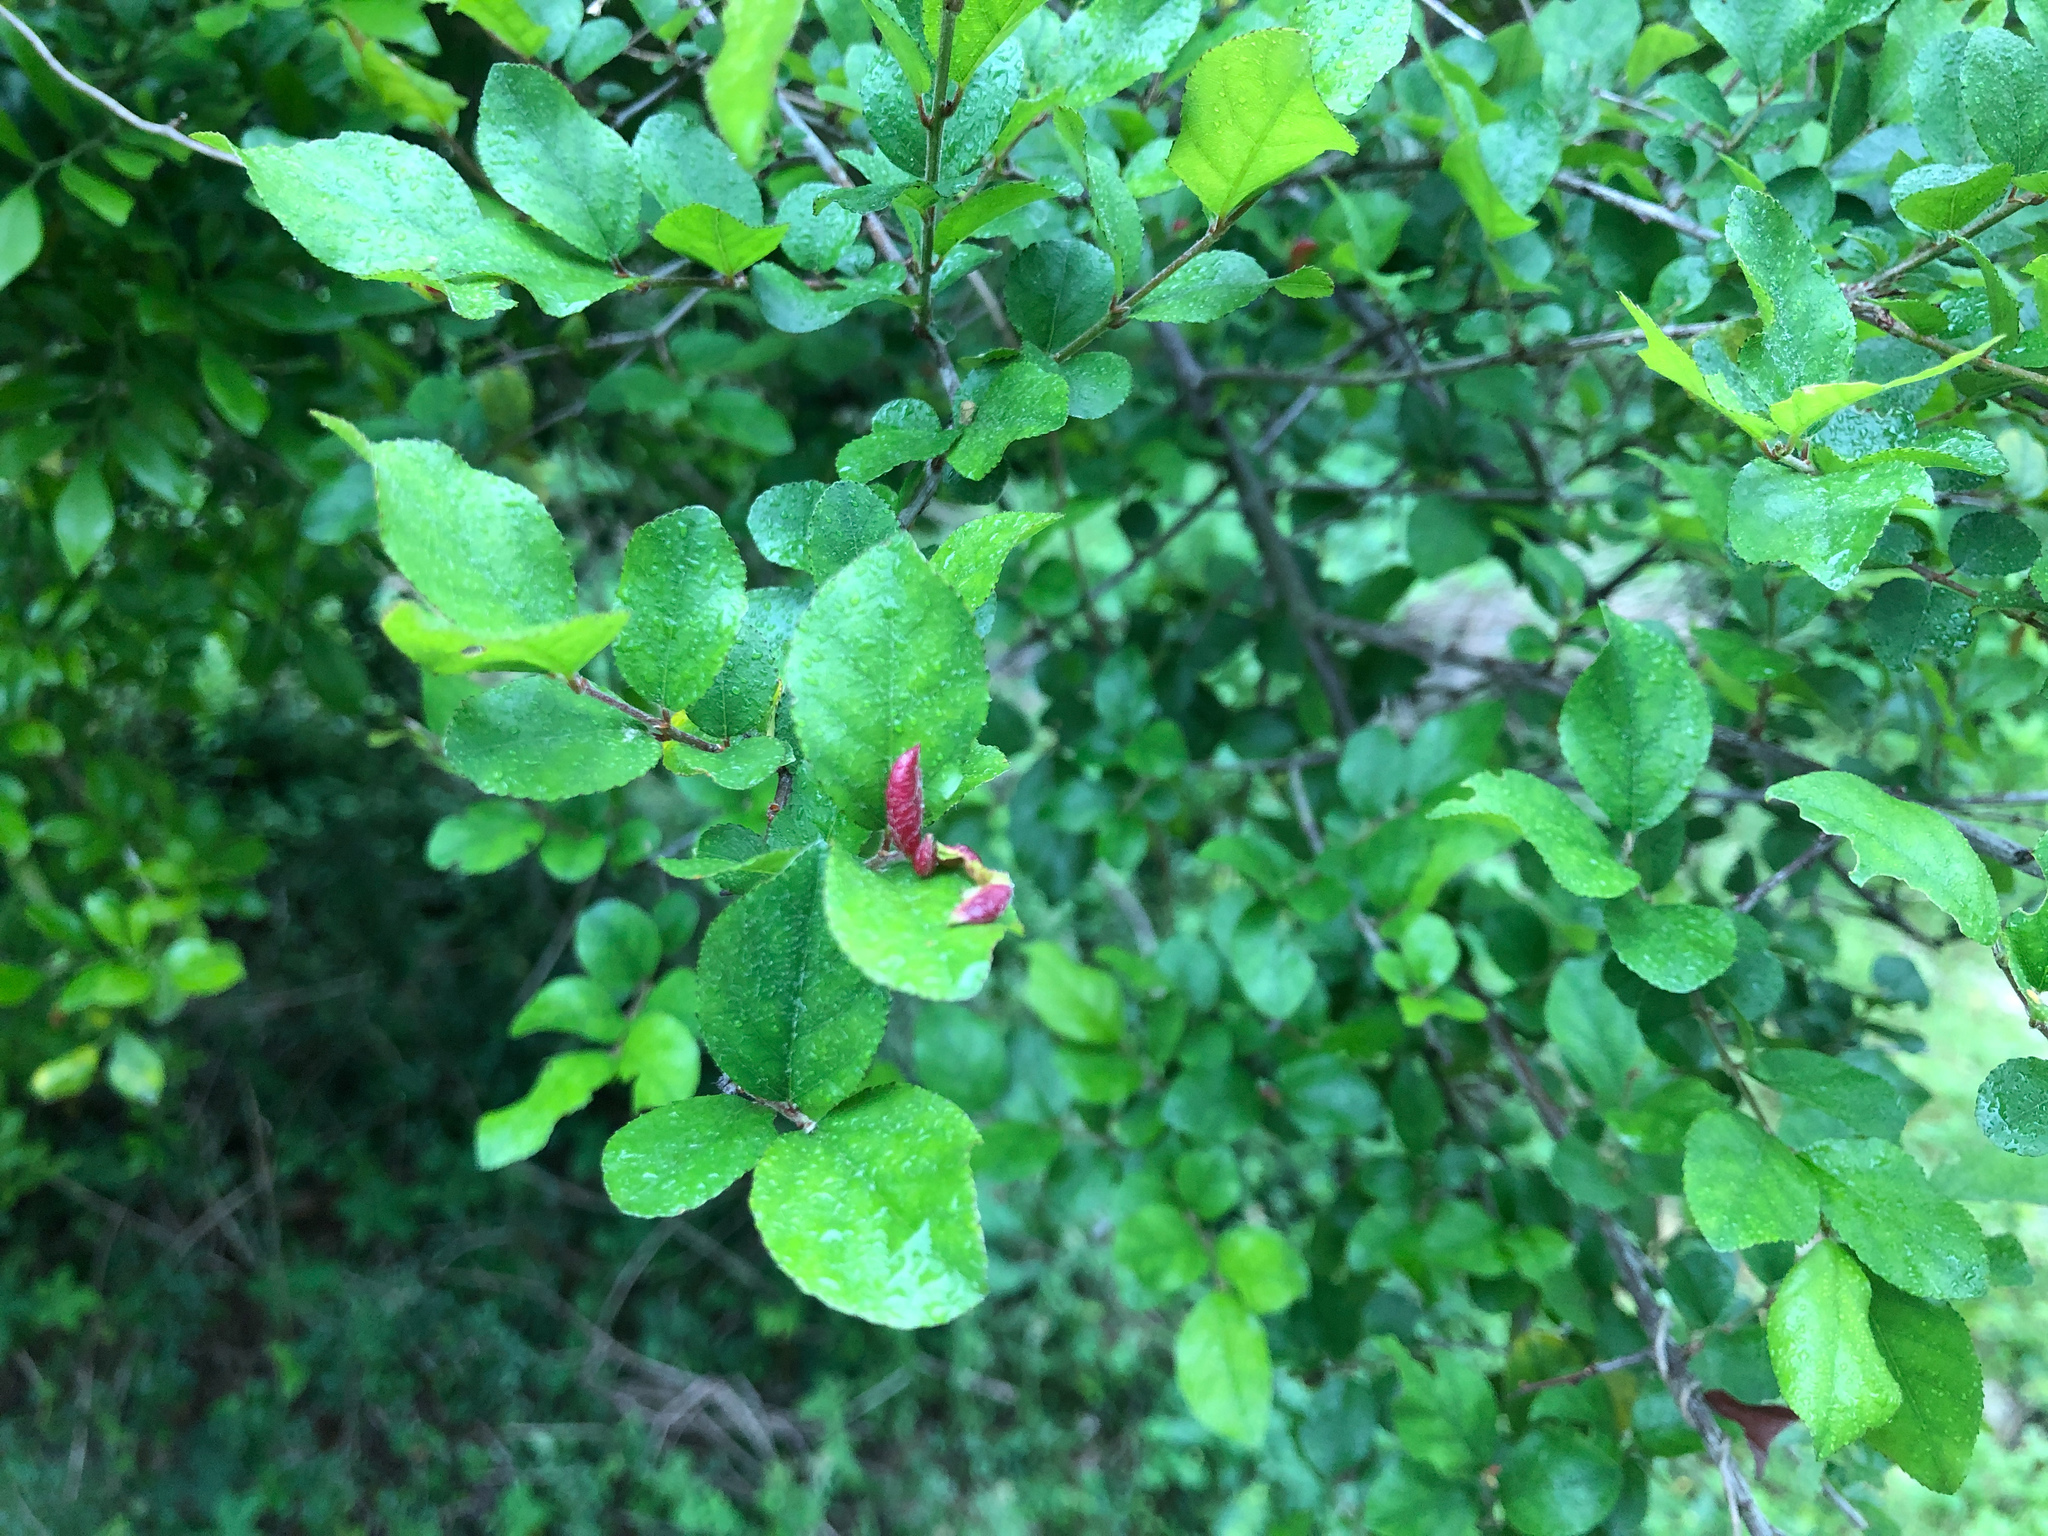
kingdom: Plantae
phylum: Tracheophyta
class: Magnoliopsida
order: Rosales
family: Rhamnaceae
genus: Sageretia
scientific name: Sageretia thea
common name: Pauper's-tea
